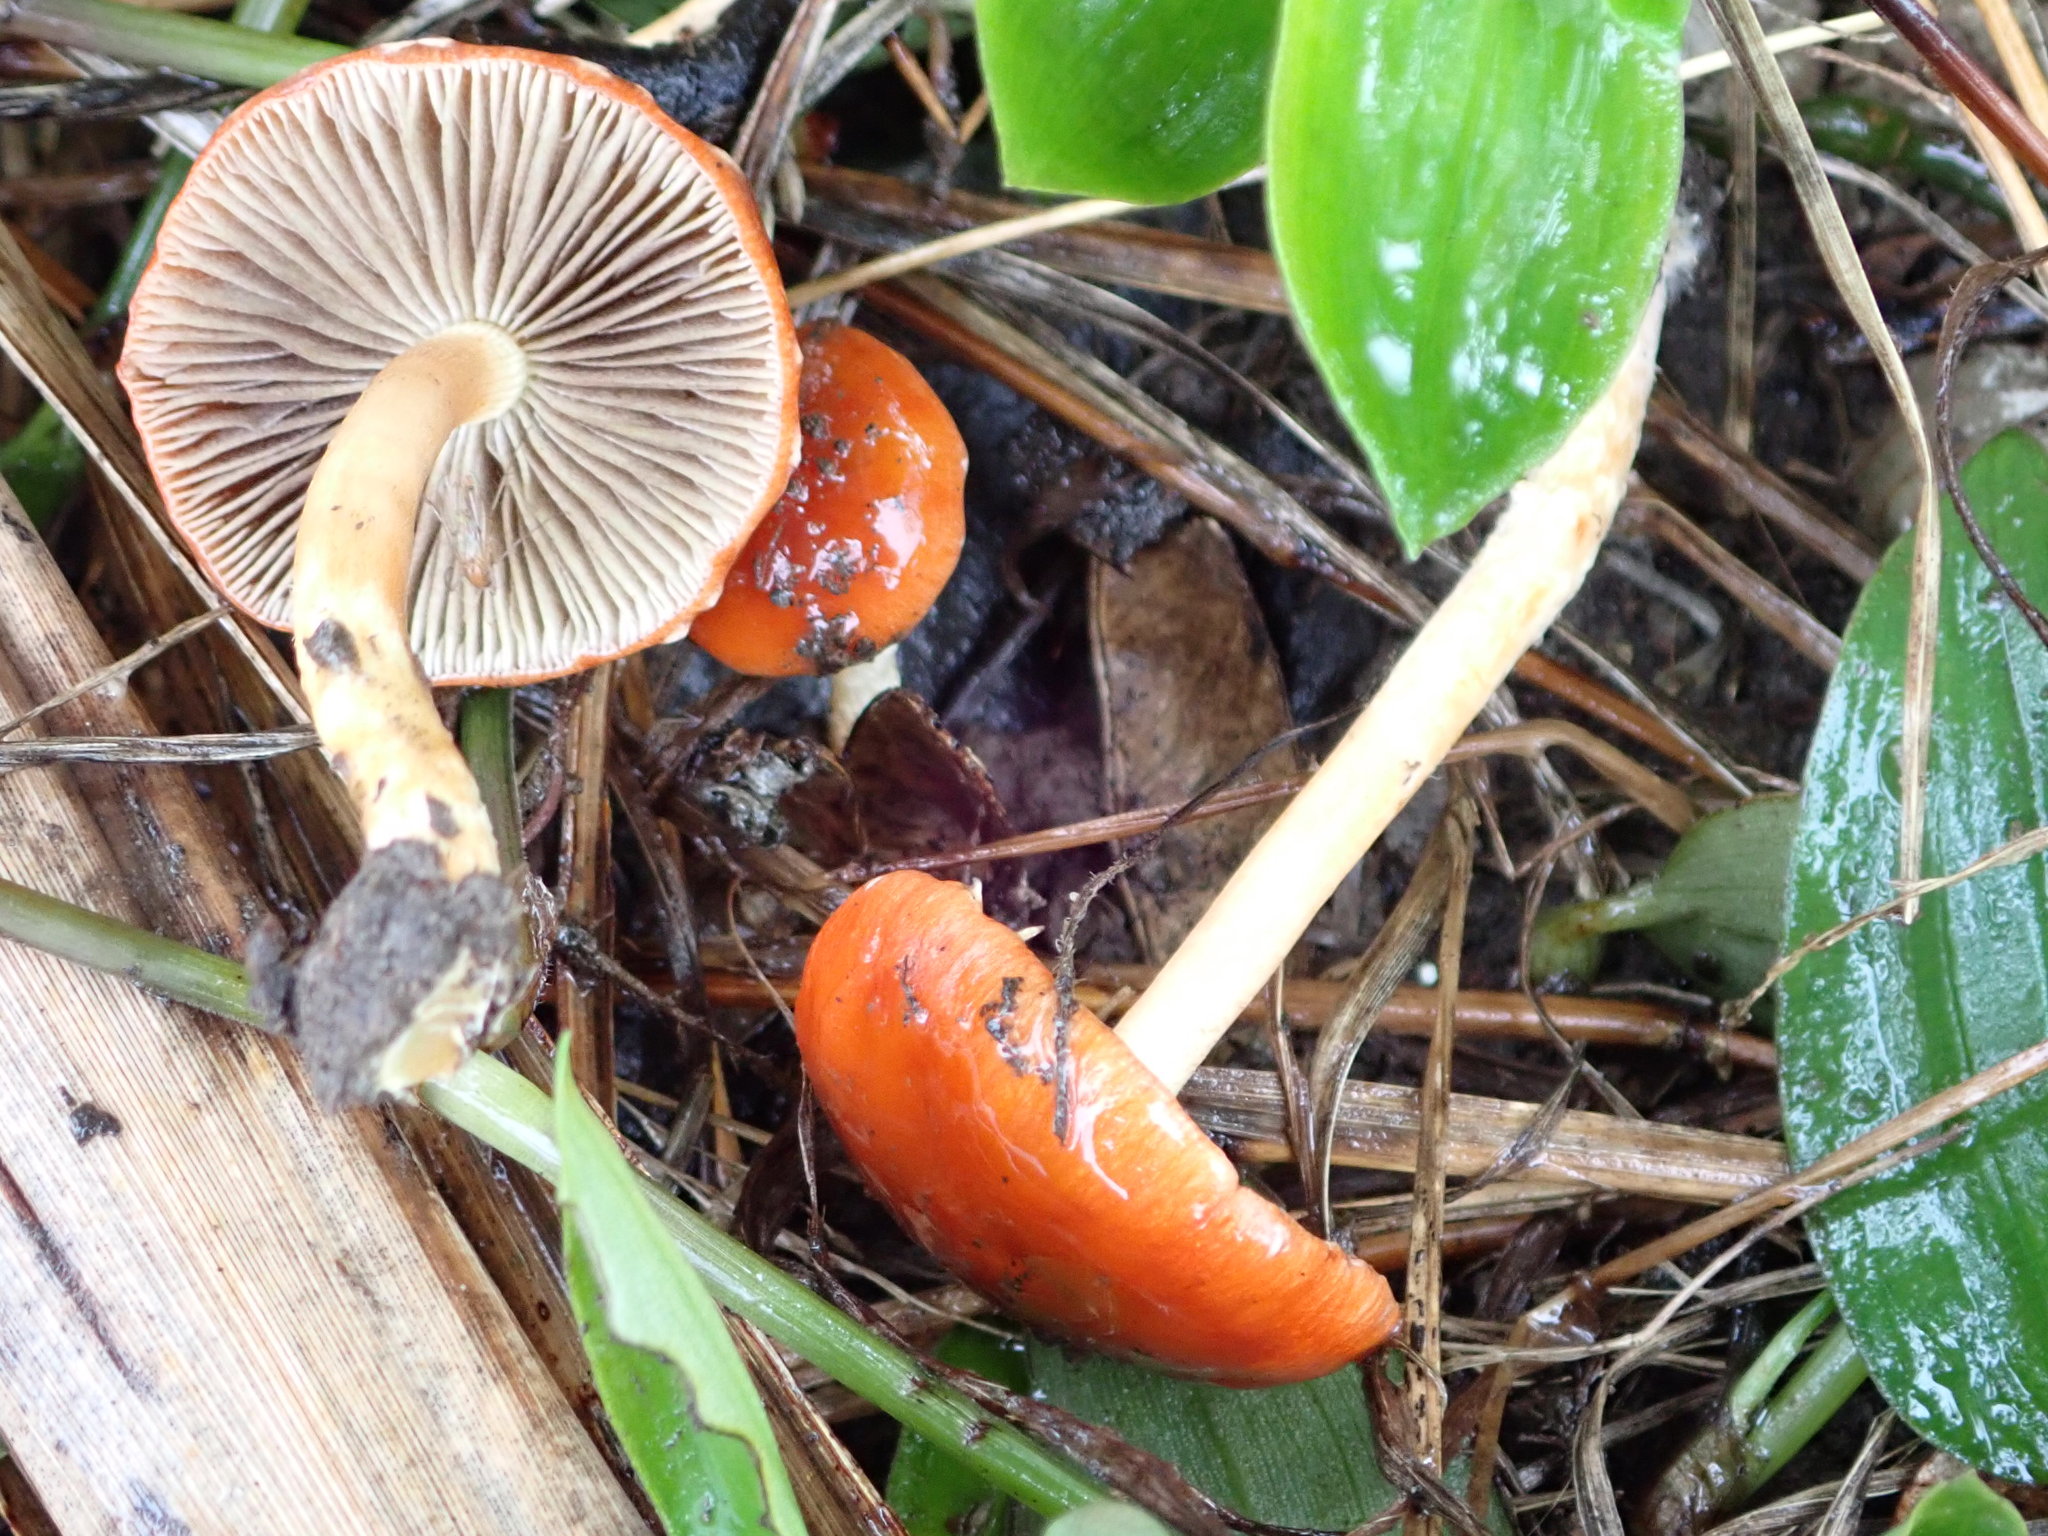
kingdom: Fungi
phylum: Basidiomycota
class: Agaricomycetes
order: Agaricales
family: Strophariaceae
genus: Leratiomyces
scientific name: Leratiomyces ceres
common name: Redlead roundhead
